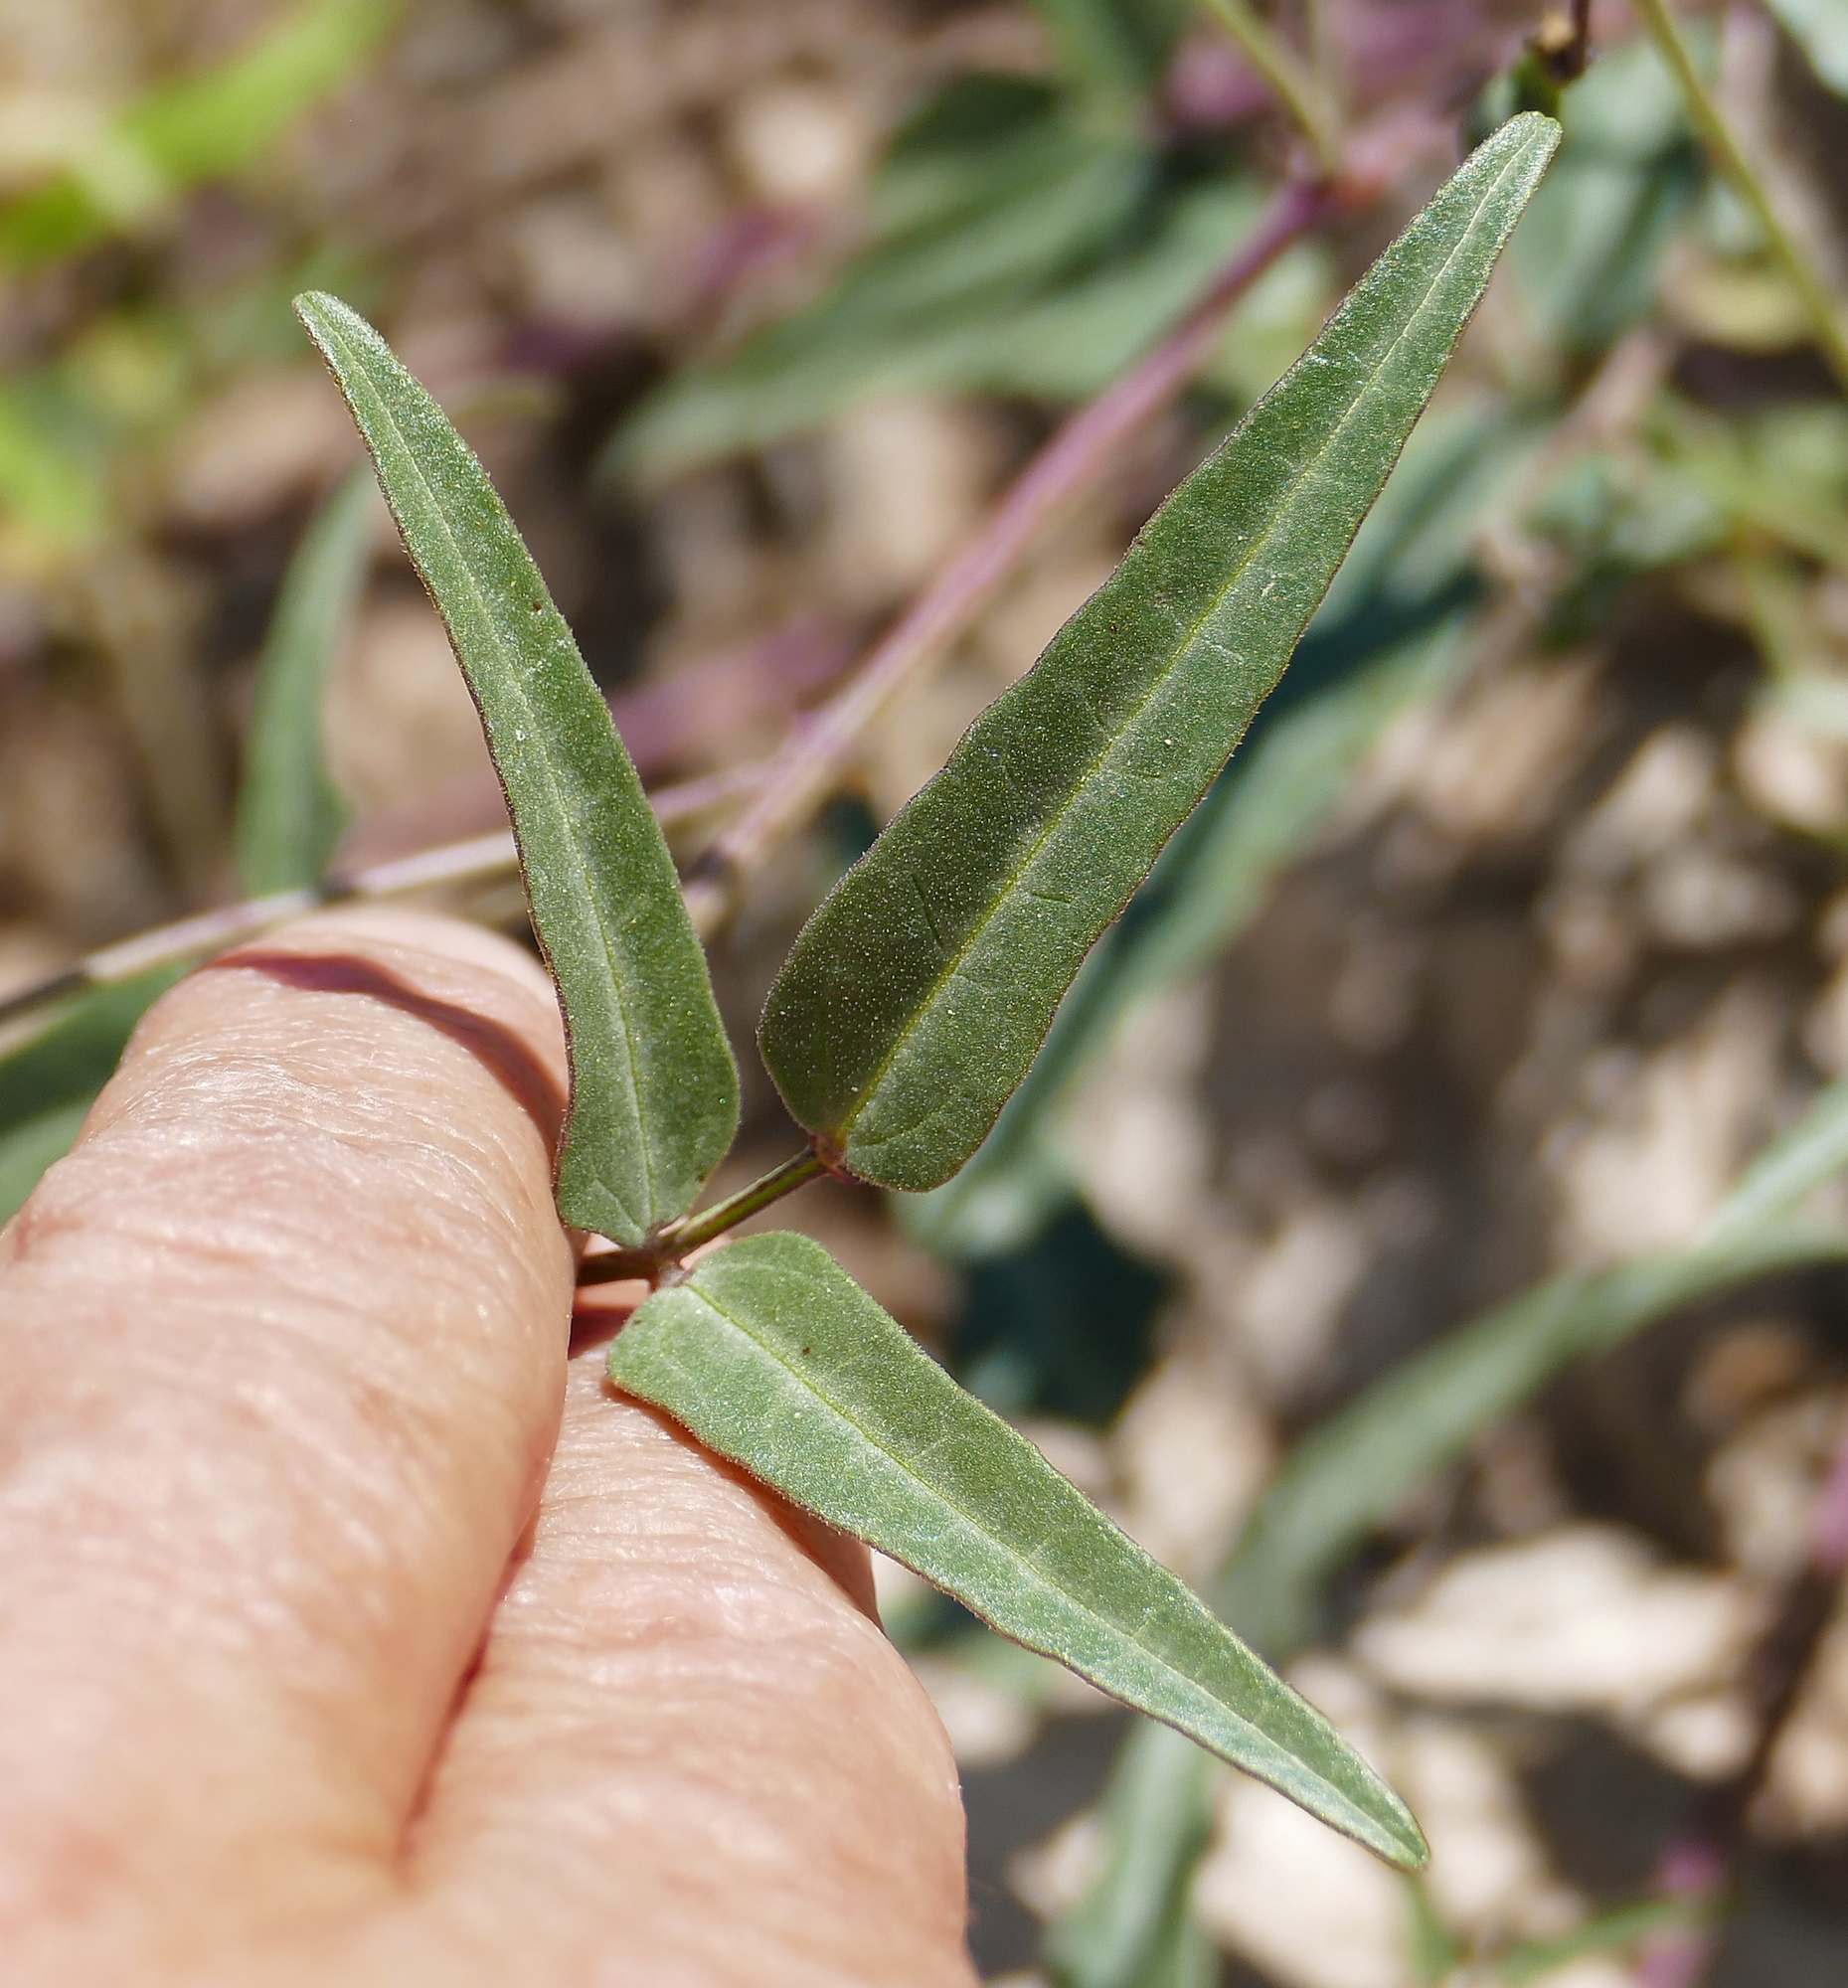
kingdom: Plantae
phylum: Tracheophyta
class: Magnoliopsida
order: Fabales
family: Fabaceae
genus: Phaseolus
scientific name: Phaseolus angustissimus
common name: Slimleaf bean
